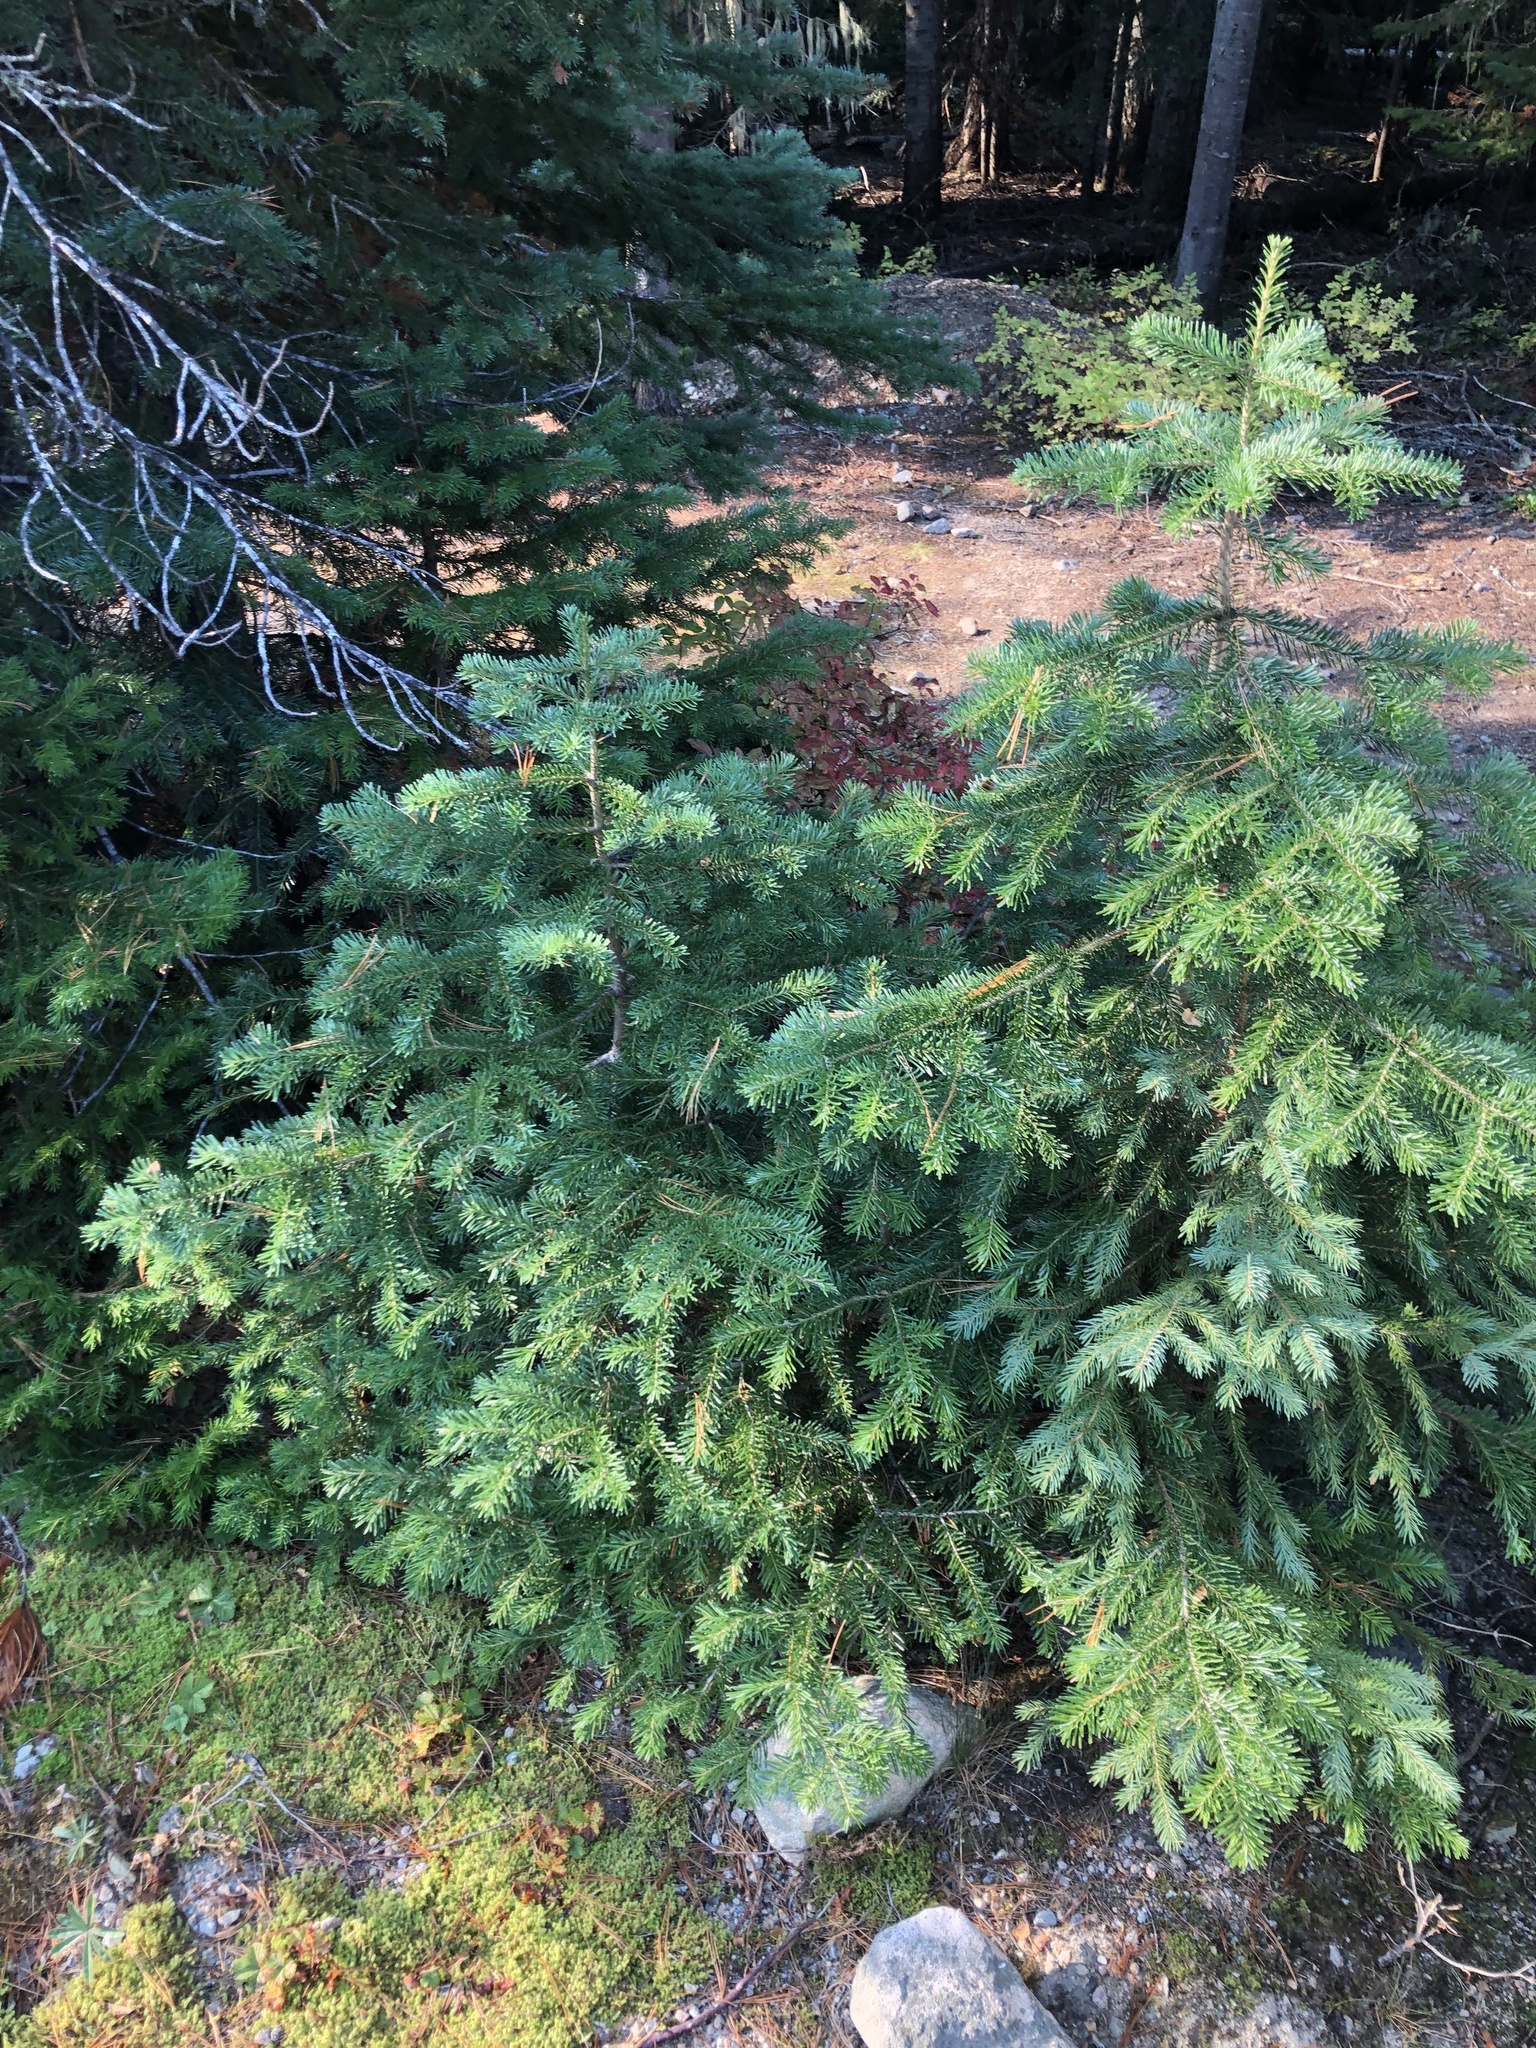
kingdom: Plantae
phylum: Tracheophyta
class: Pinopsida
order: Pinales
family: Pinaceae
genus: Picea
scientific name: Picea engelmannii
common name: Engelmann spruce
